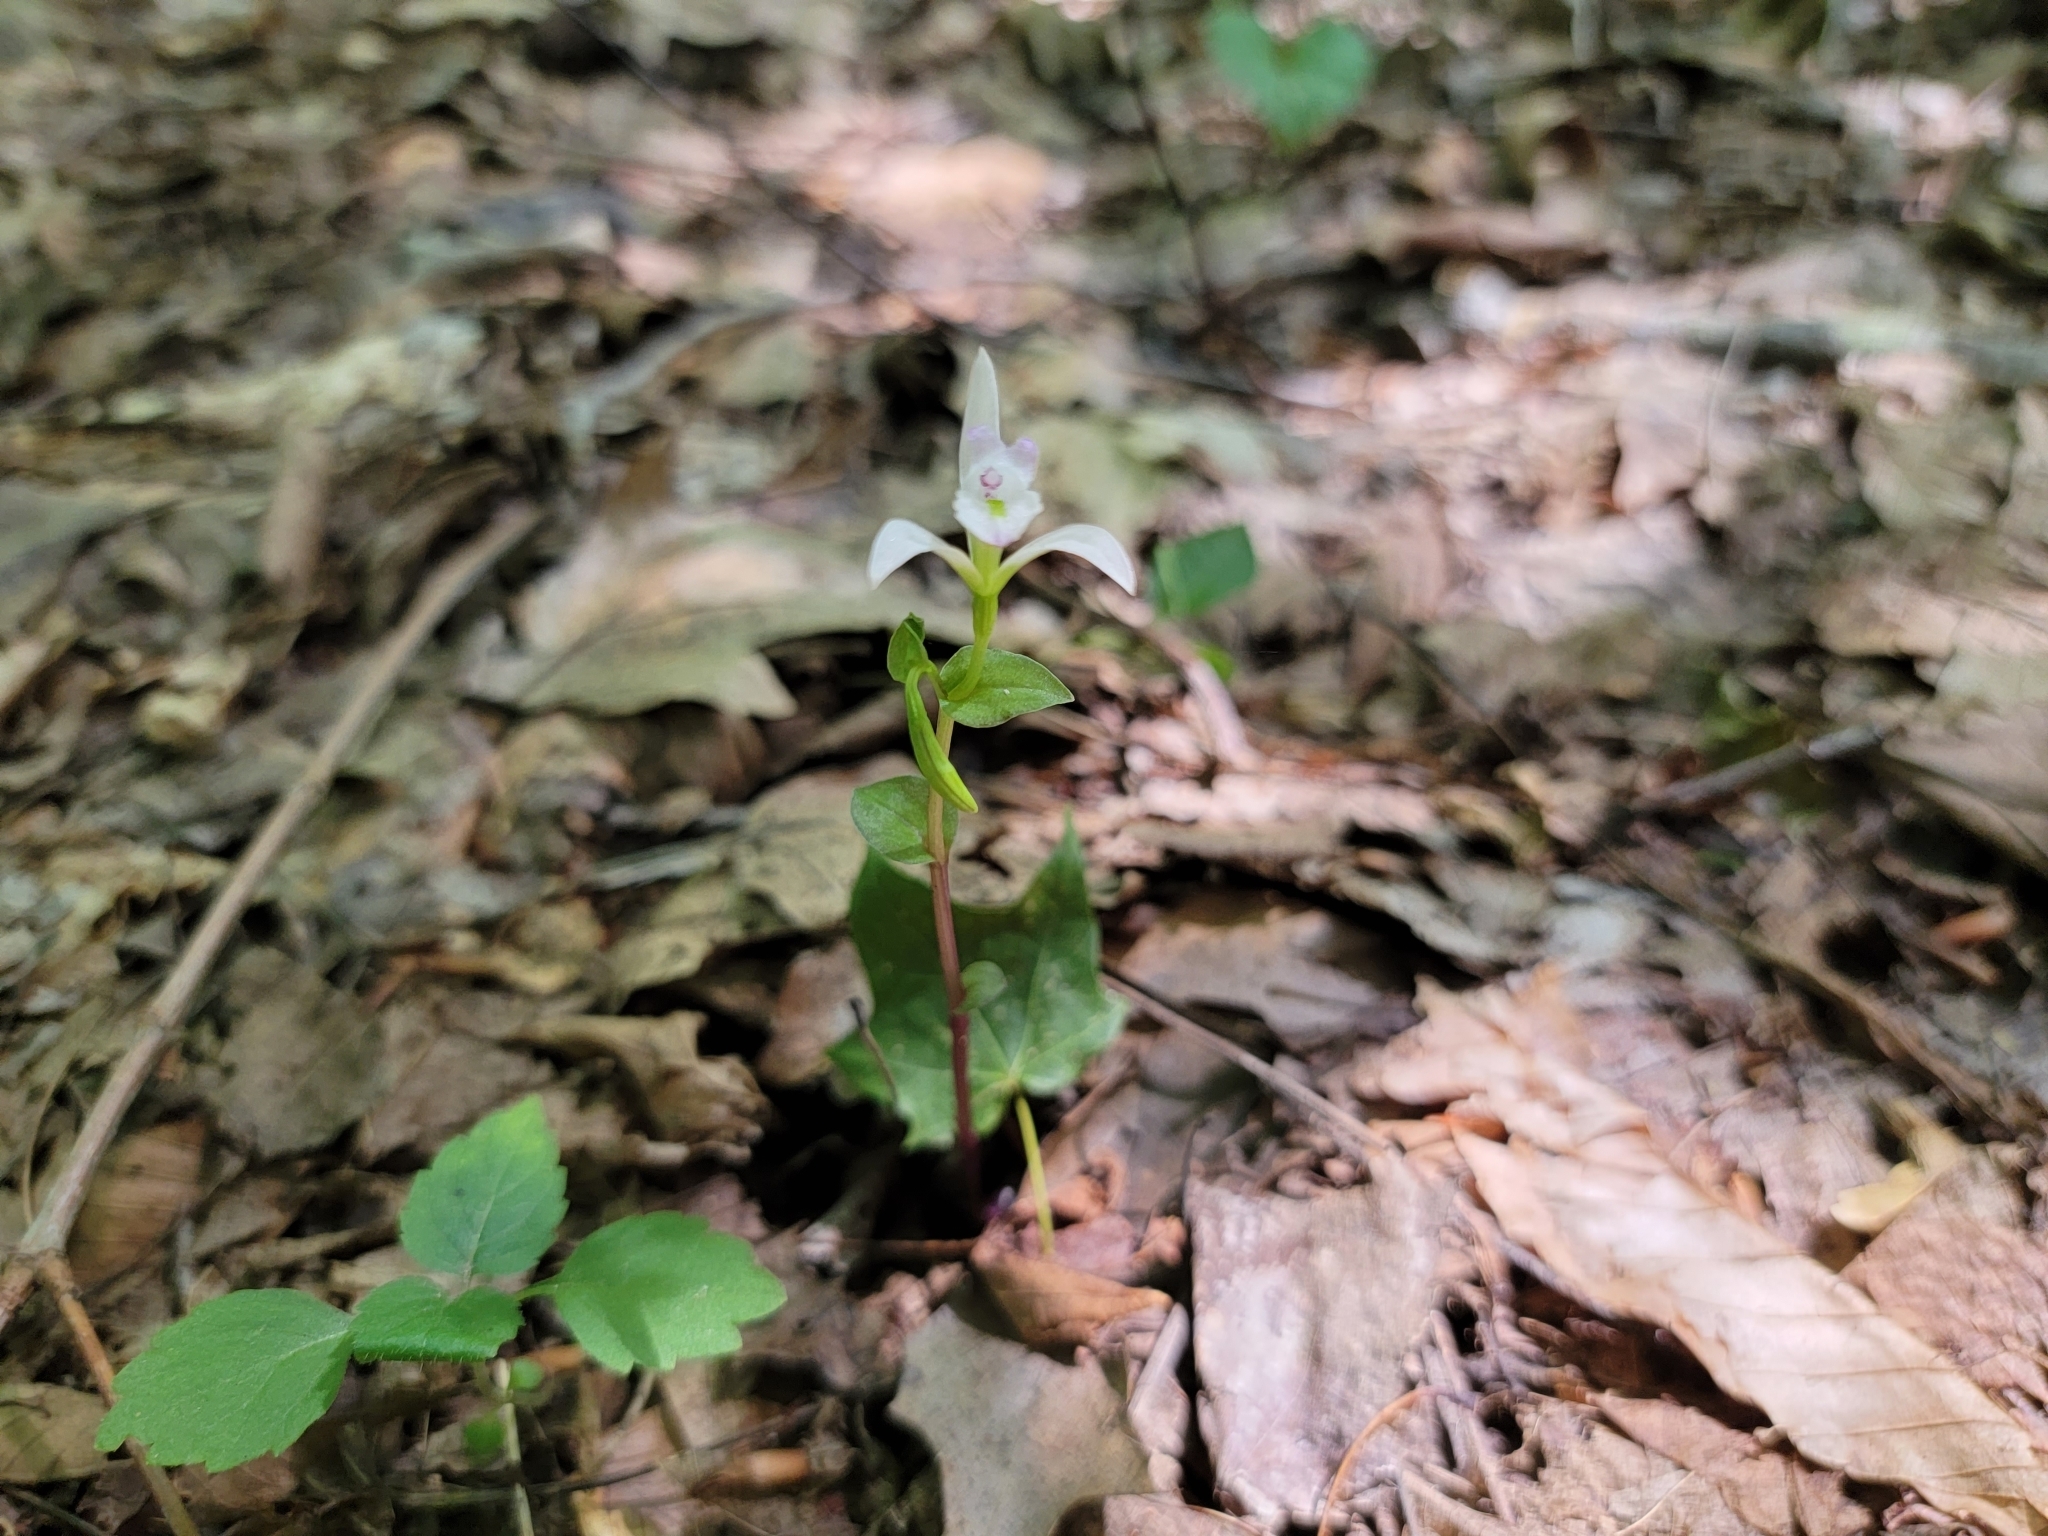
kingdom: Plantae
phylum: Tracheophyta
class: Liliopsida
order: Asparagales
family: Orchidaceae
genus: Triphora
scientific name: Triphora trianthophoros
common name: Three birds orchid
